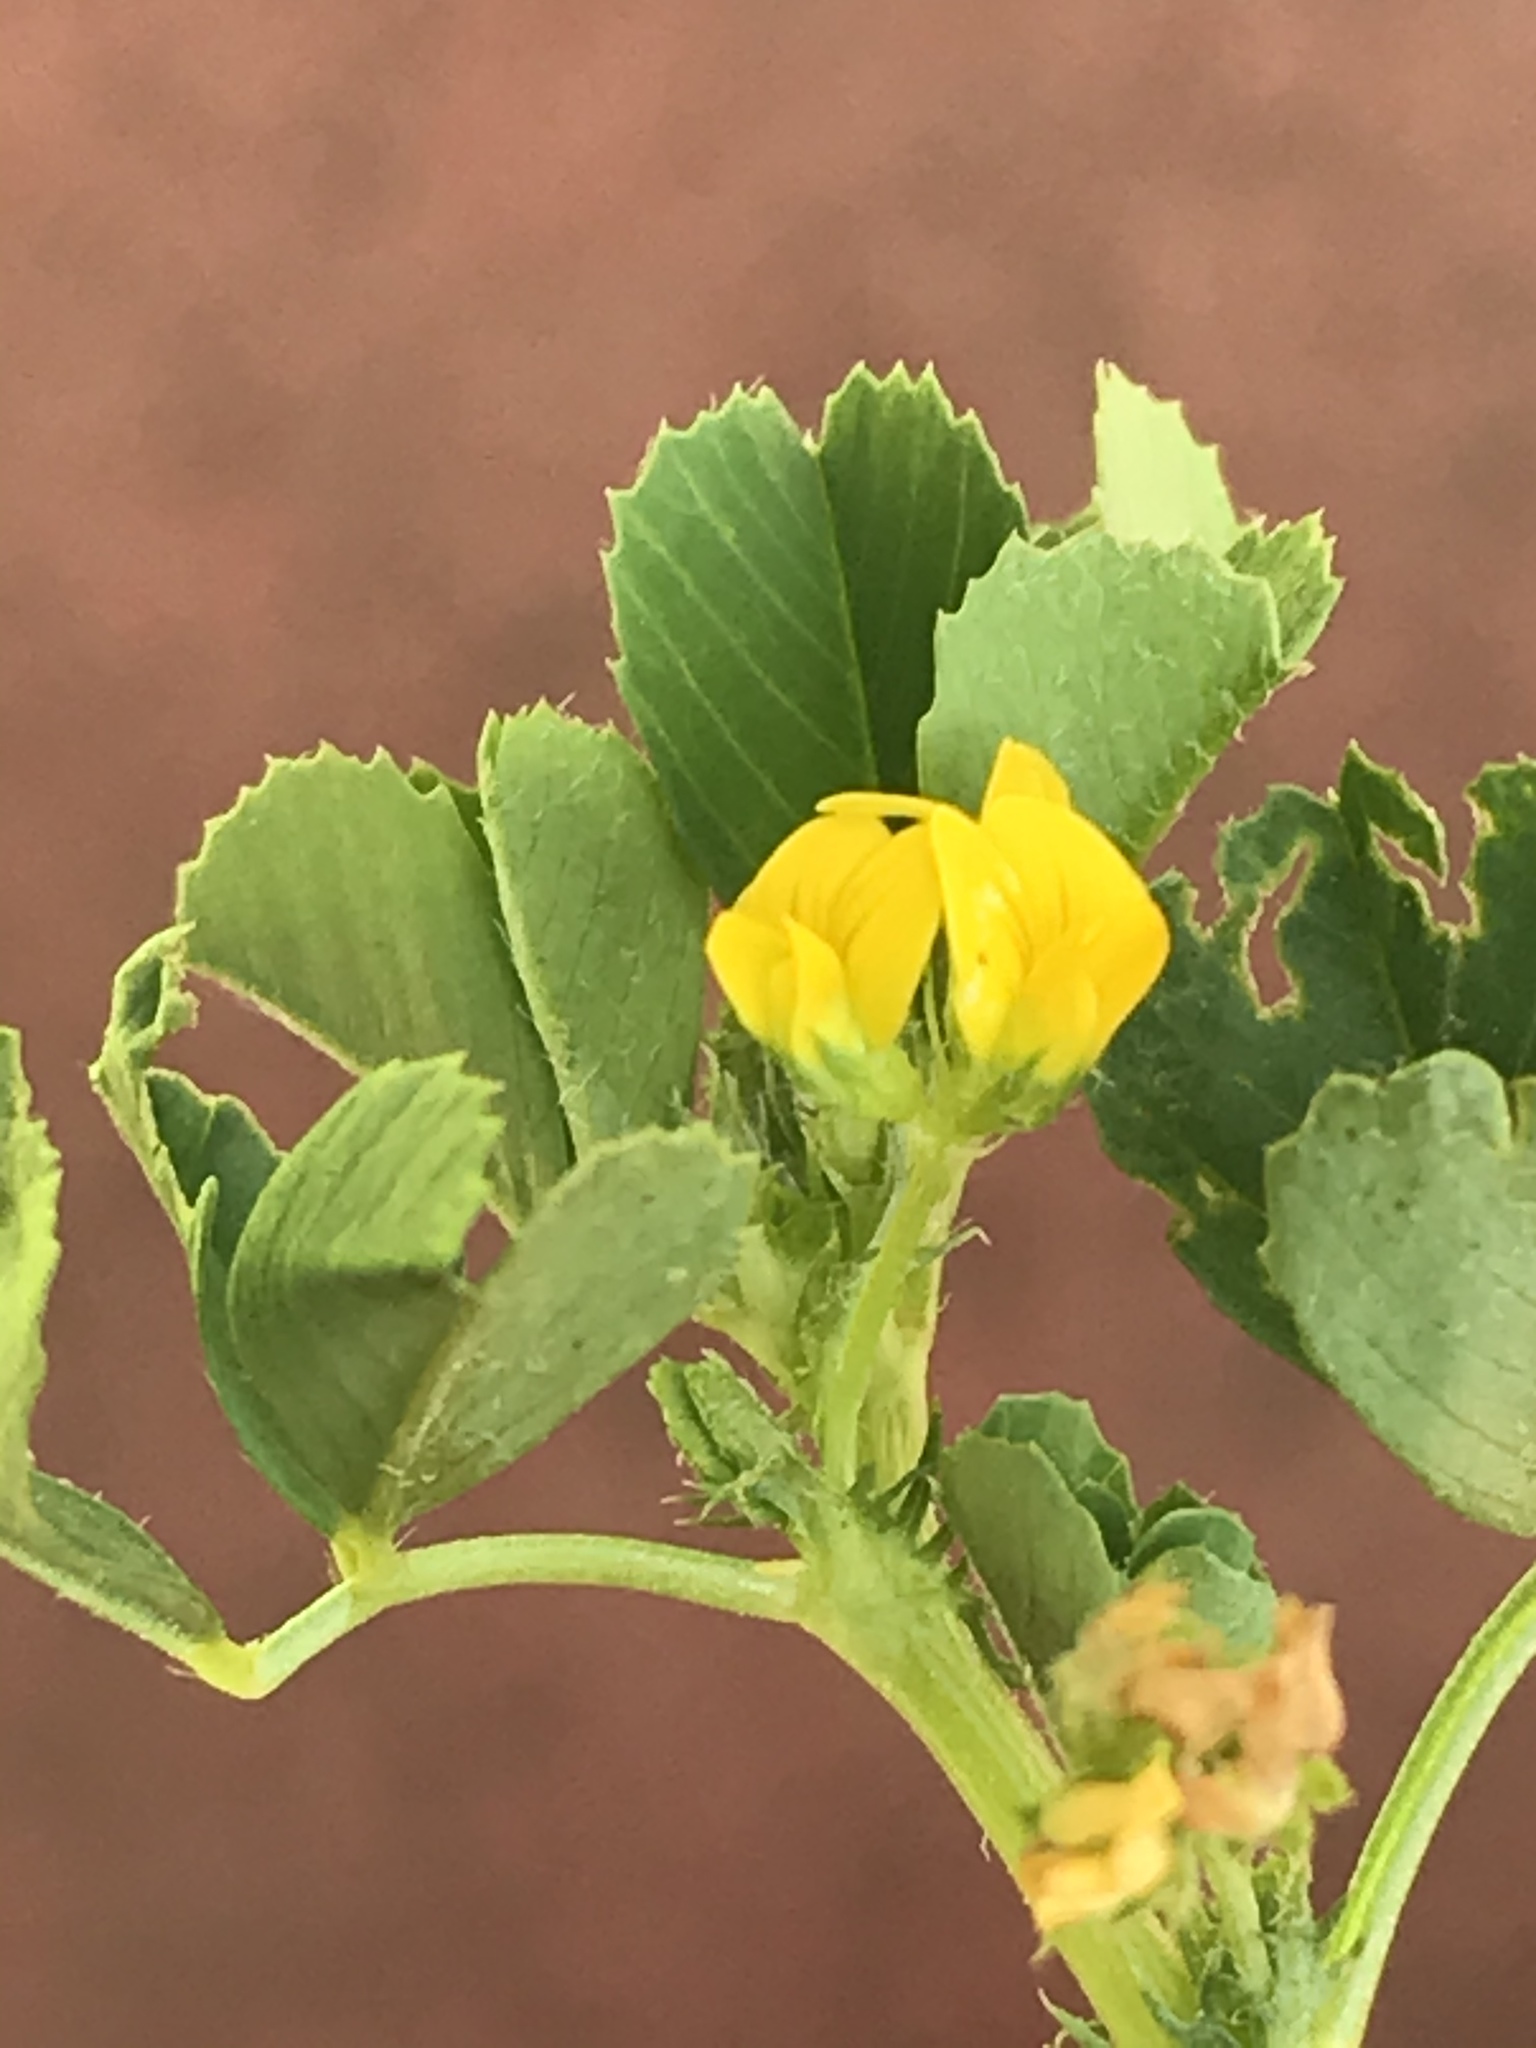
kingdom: Plantae
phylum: Tracheophyta
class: Magnoliopsida
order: Fabales
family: Fabaceae
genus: Medicago
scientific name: Medicago polymorpha
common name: Burclover
